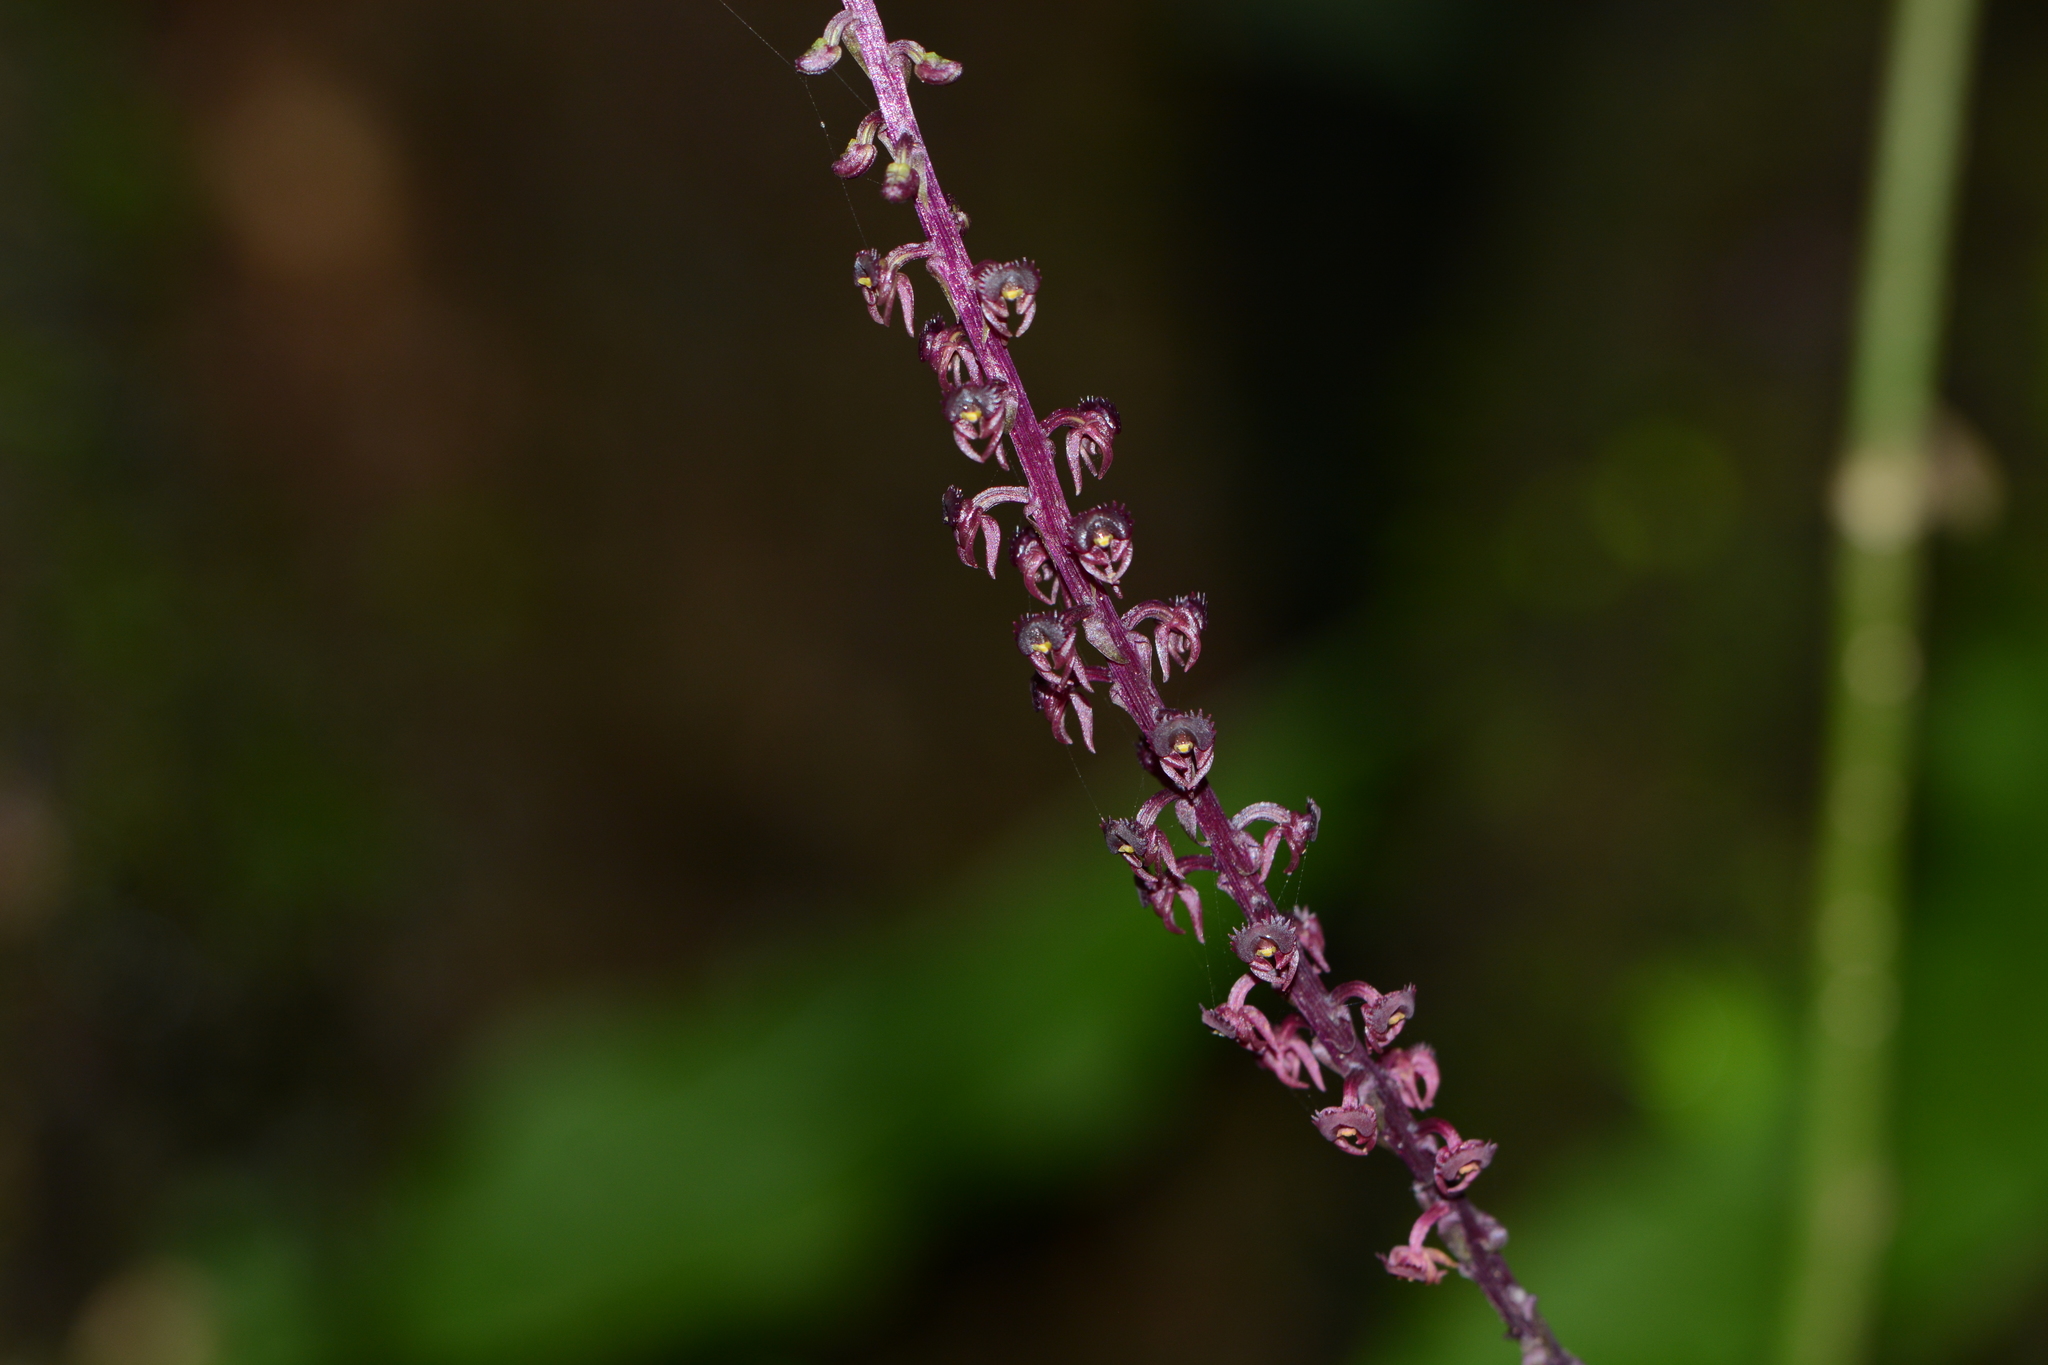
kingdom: Plantae
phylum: Tracheophyta
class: Liliopsida
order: Asparagales
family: Orchidaceae
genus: Malaxis
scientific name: Malaxis versicolor
